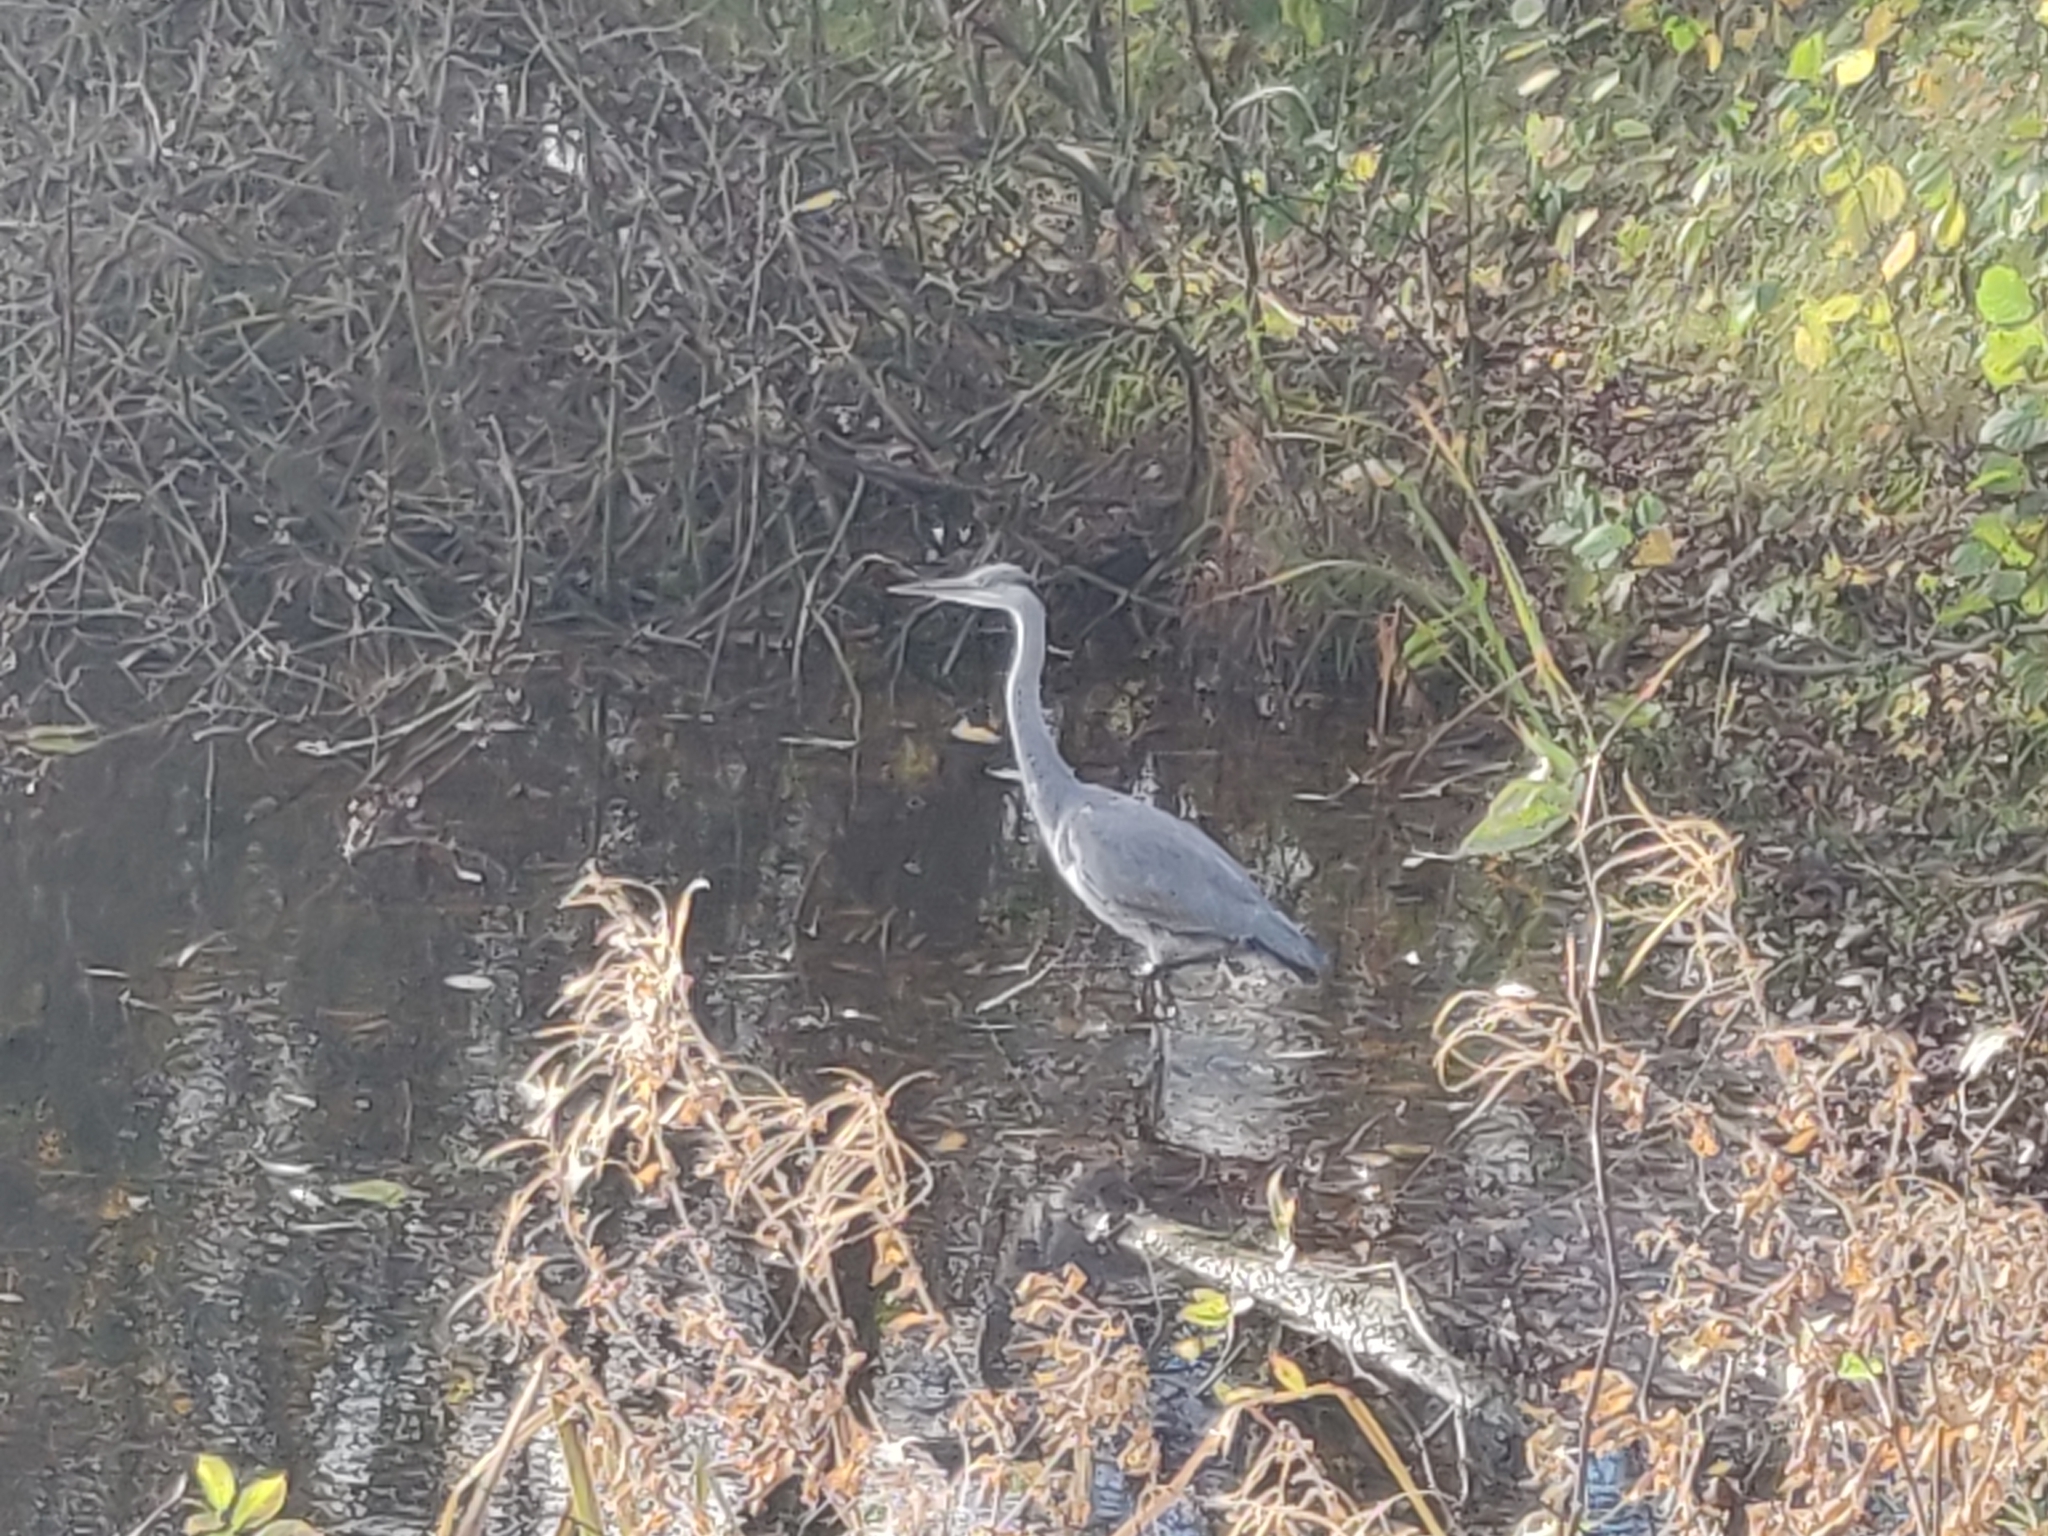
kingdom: Animalia
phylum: Chordata
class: Aves
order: Pelecaniformes
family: Ardeidae
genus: Ardea
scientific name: Ardea cinerea
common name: Grey heron
